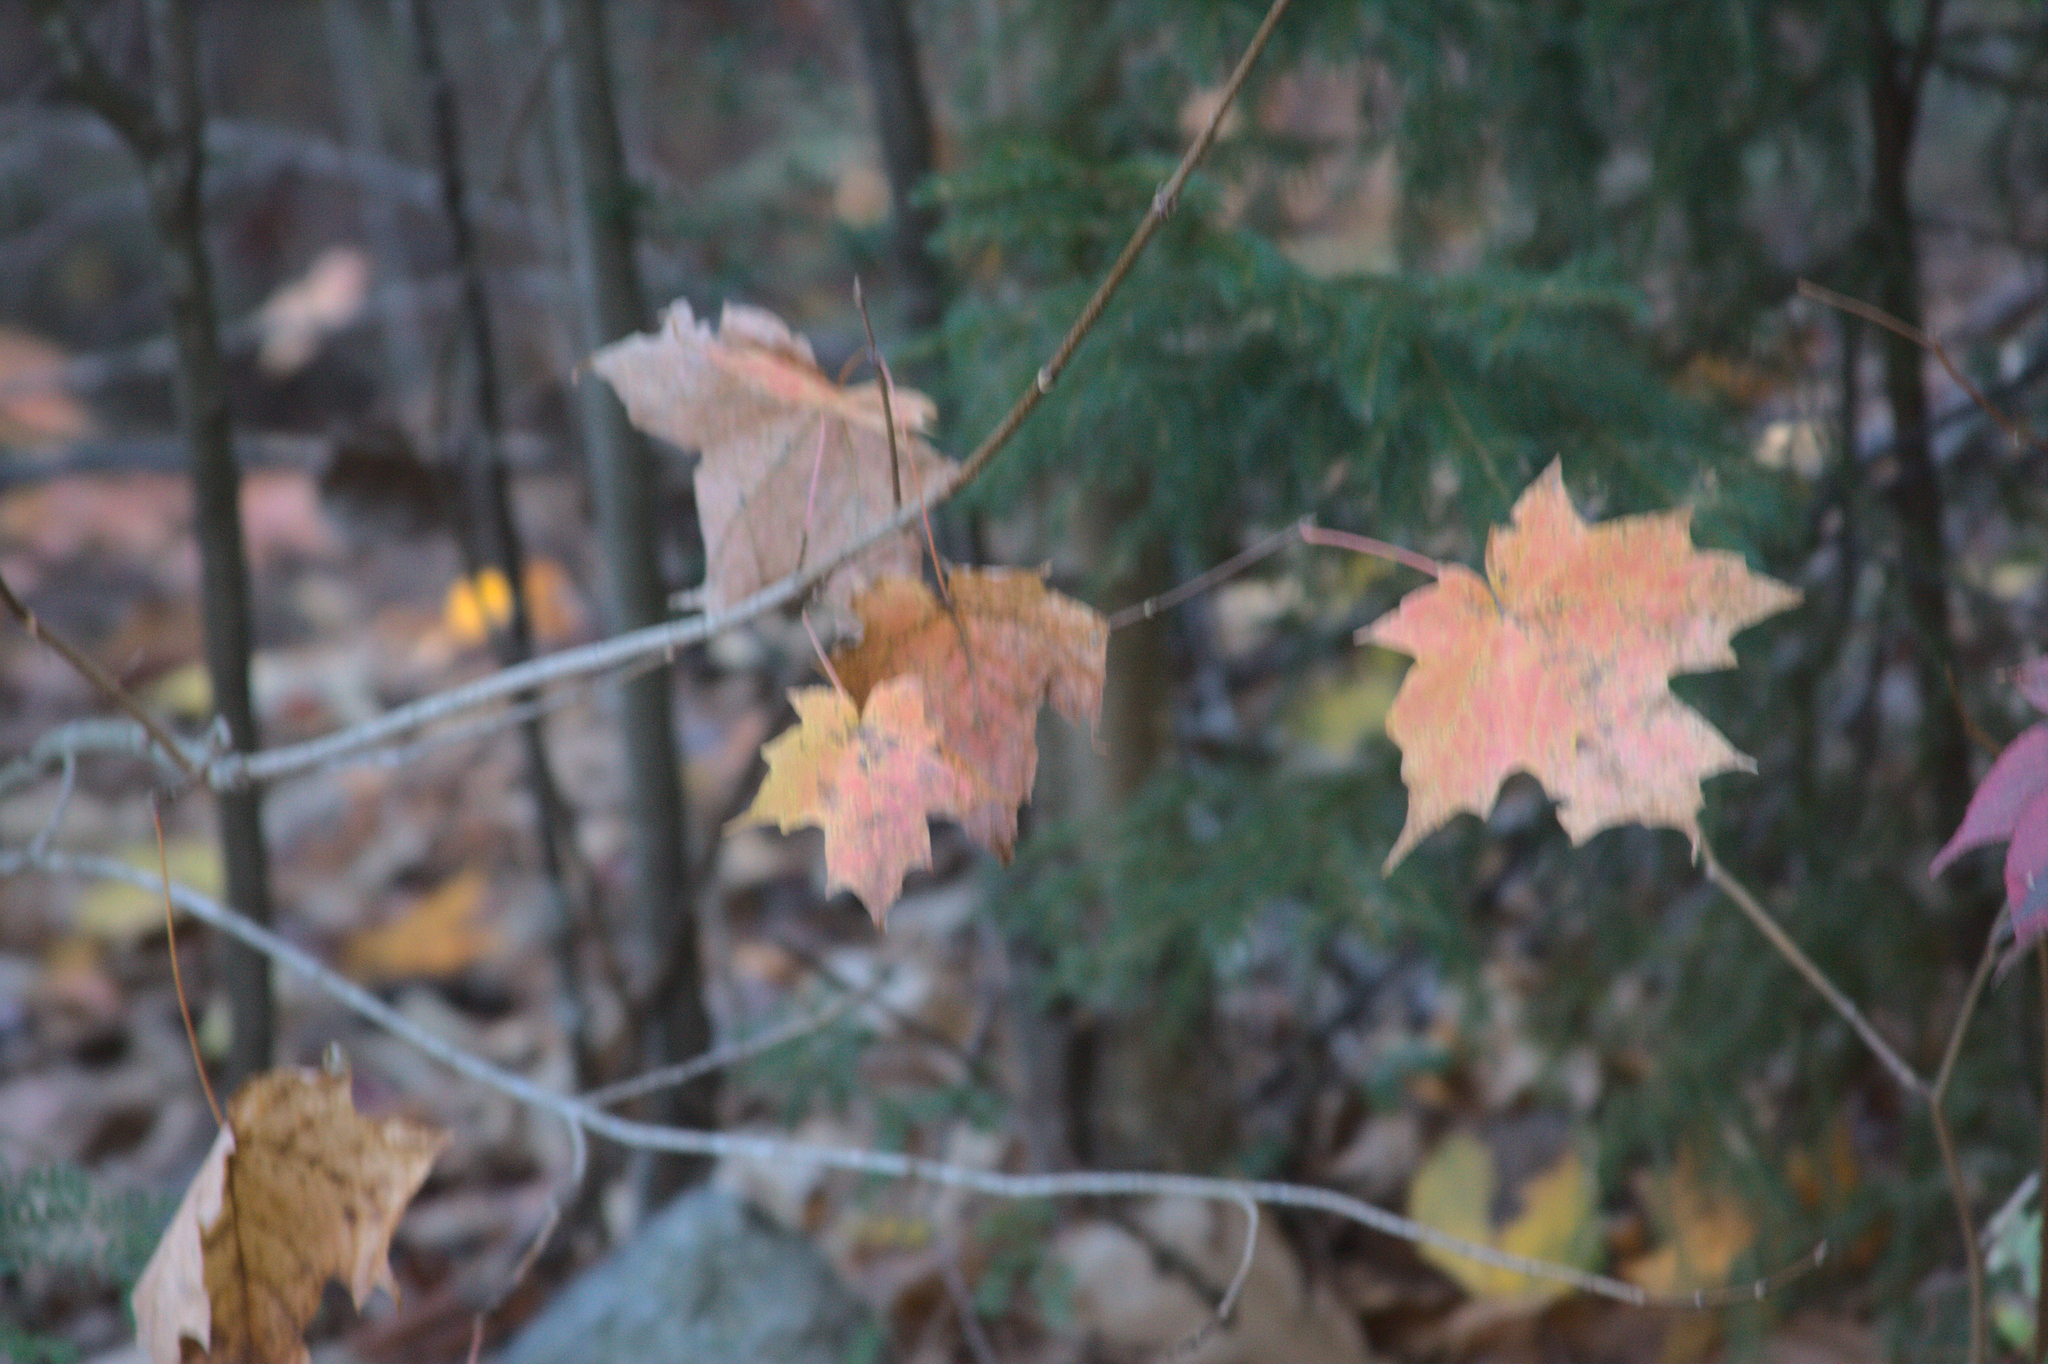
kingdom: Plantae
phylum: Tracheophyta
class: Magnoliopsida
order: Sapindales
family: Sapindaceae
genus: Acer
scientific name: Acer saccharum
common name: Sugar maple
